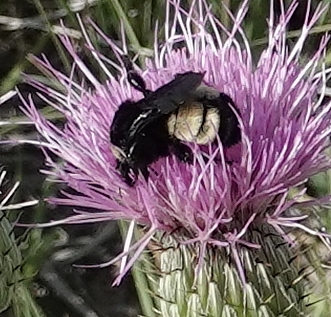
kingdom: Animalia
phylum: Arthropoda
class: Insecta
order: Hymenoptera
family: Apidae
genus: Bombus
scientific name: Bombus pensylvanicus
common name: Bumble bee
